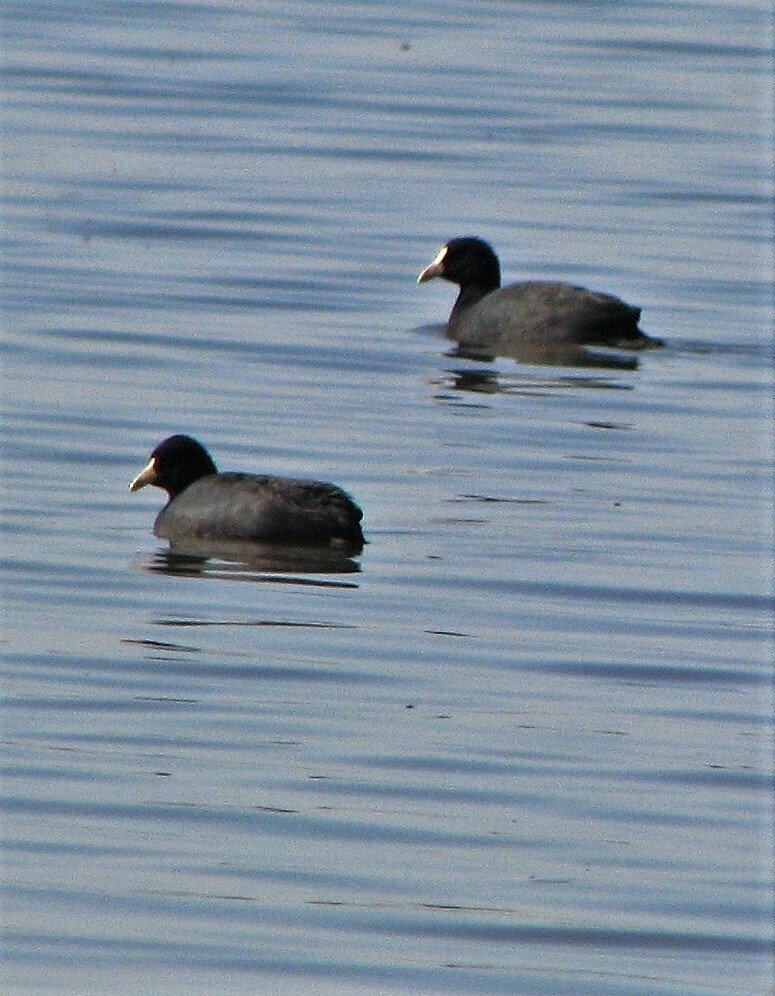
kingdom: Animalia
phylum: Chordata
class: Aves
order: Gruiformes
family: Rallidae
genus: Fulica
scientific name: Fulica leucoptera
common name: White-winged coot
